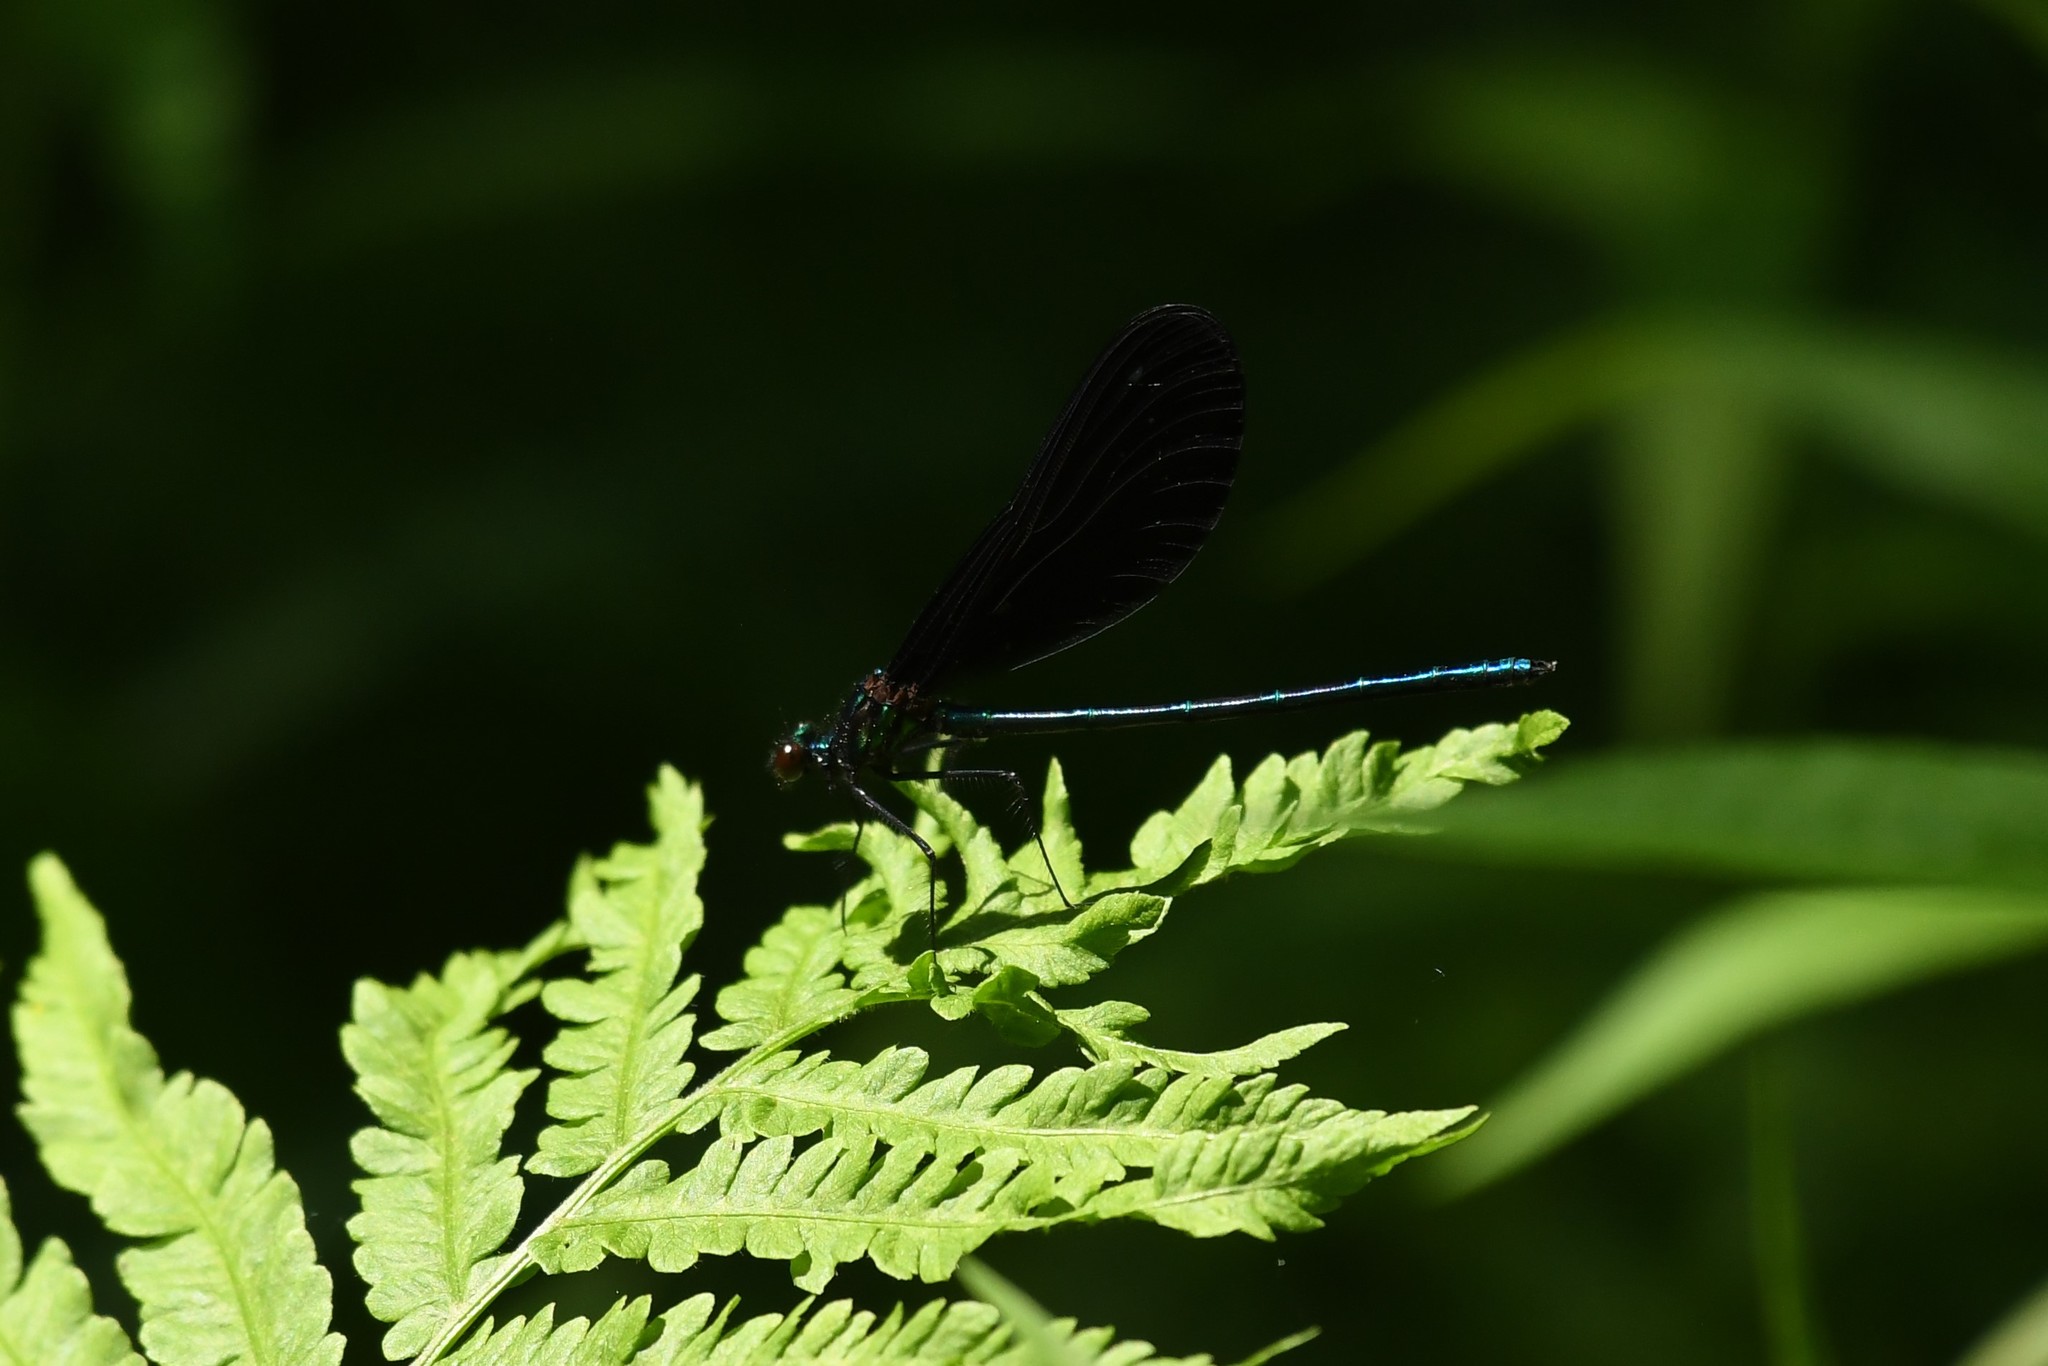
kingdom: Animalia
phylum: Arthropoda
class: Insecta
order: Odonata
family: Calopterygidae
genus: Calopteryx
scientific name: Calopteryx maculata
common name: Ebony jewelwing
